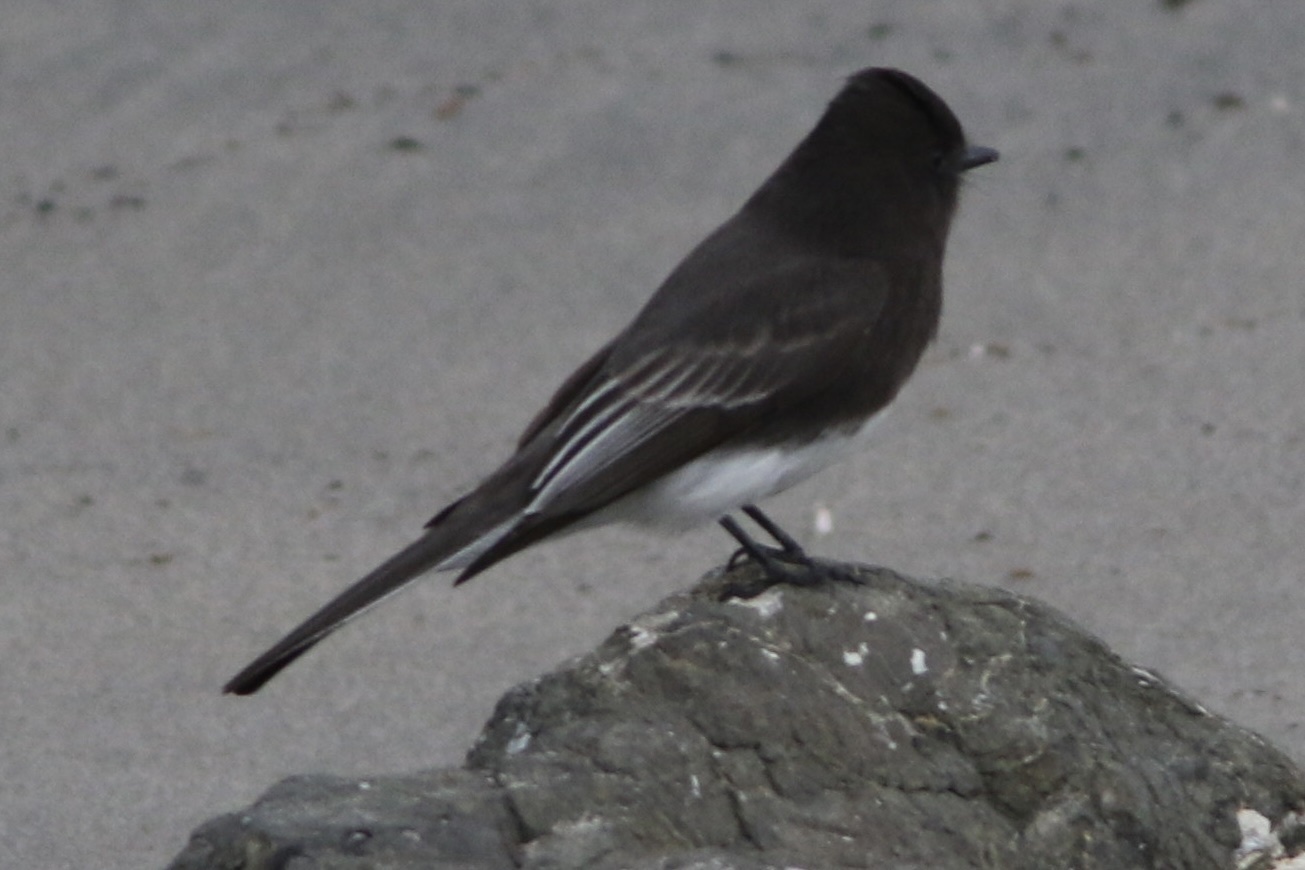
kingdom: Animalia
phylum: Chordata
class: Aves
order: Passeriformes
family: Tyrannidae
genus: Sayornis
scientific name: Sayornis nigricans
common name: Black phoebe
